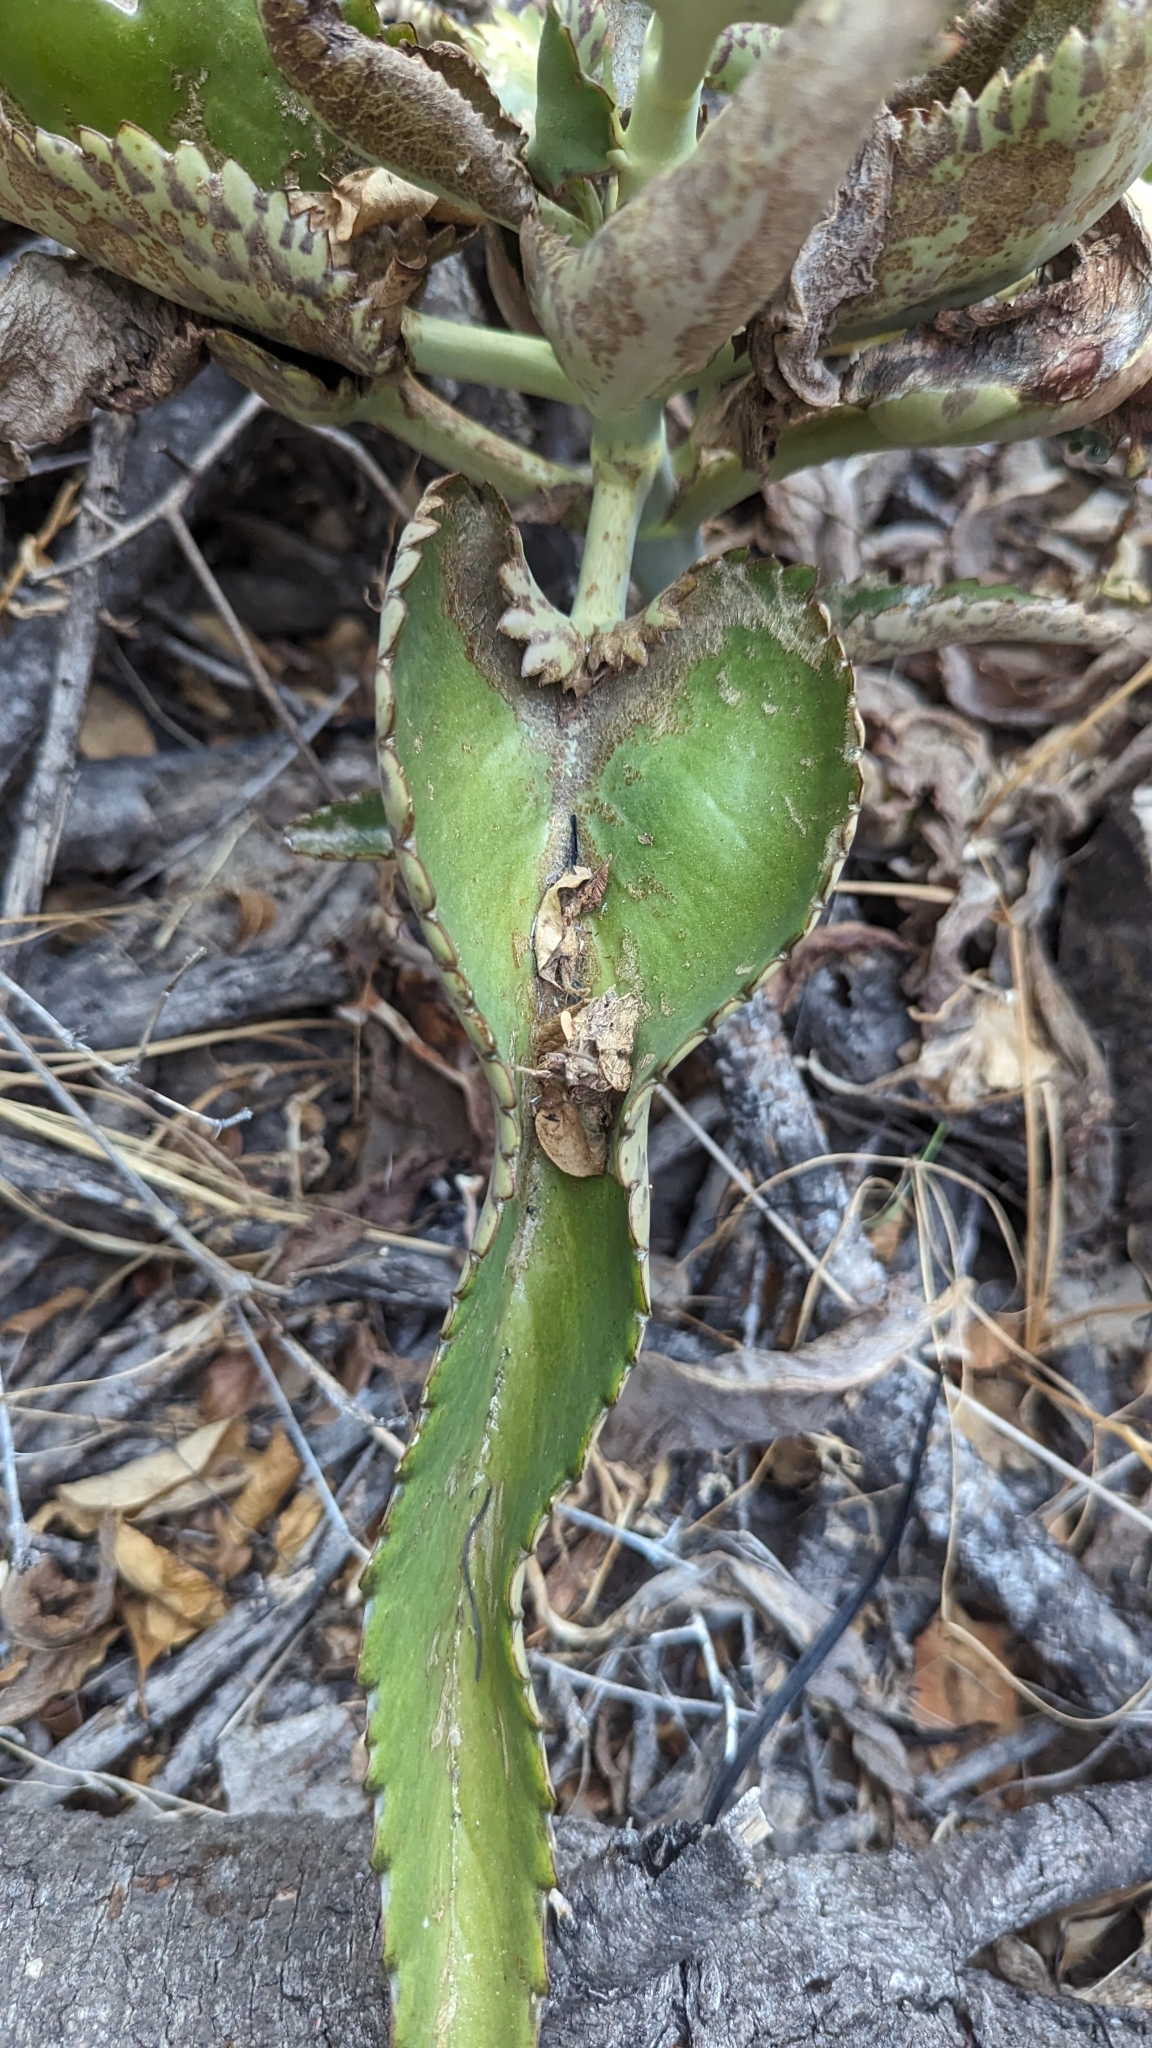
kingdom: Plantae
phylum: Tracheophyta
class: Magnoliopsida
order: Saxifragales
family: Crassulaceae
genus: Kalanchoe
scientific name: Kalanchoe daigremontiana
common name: Devil's backbone
